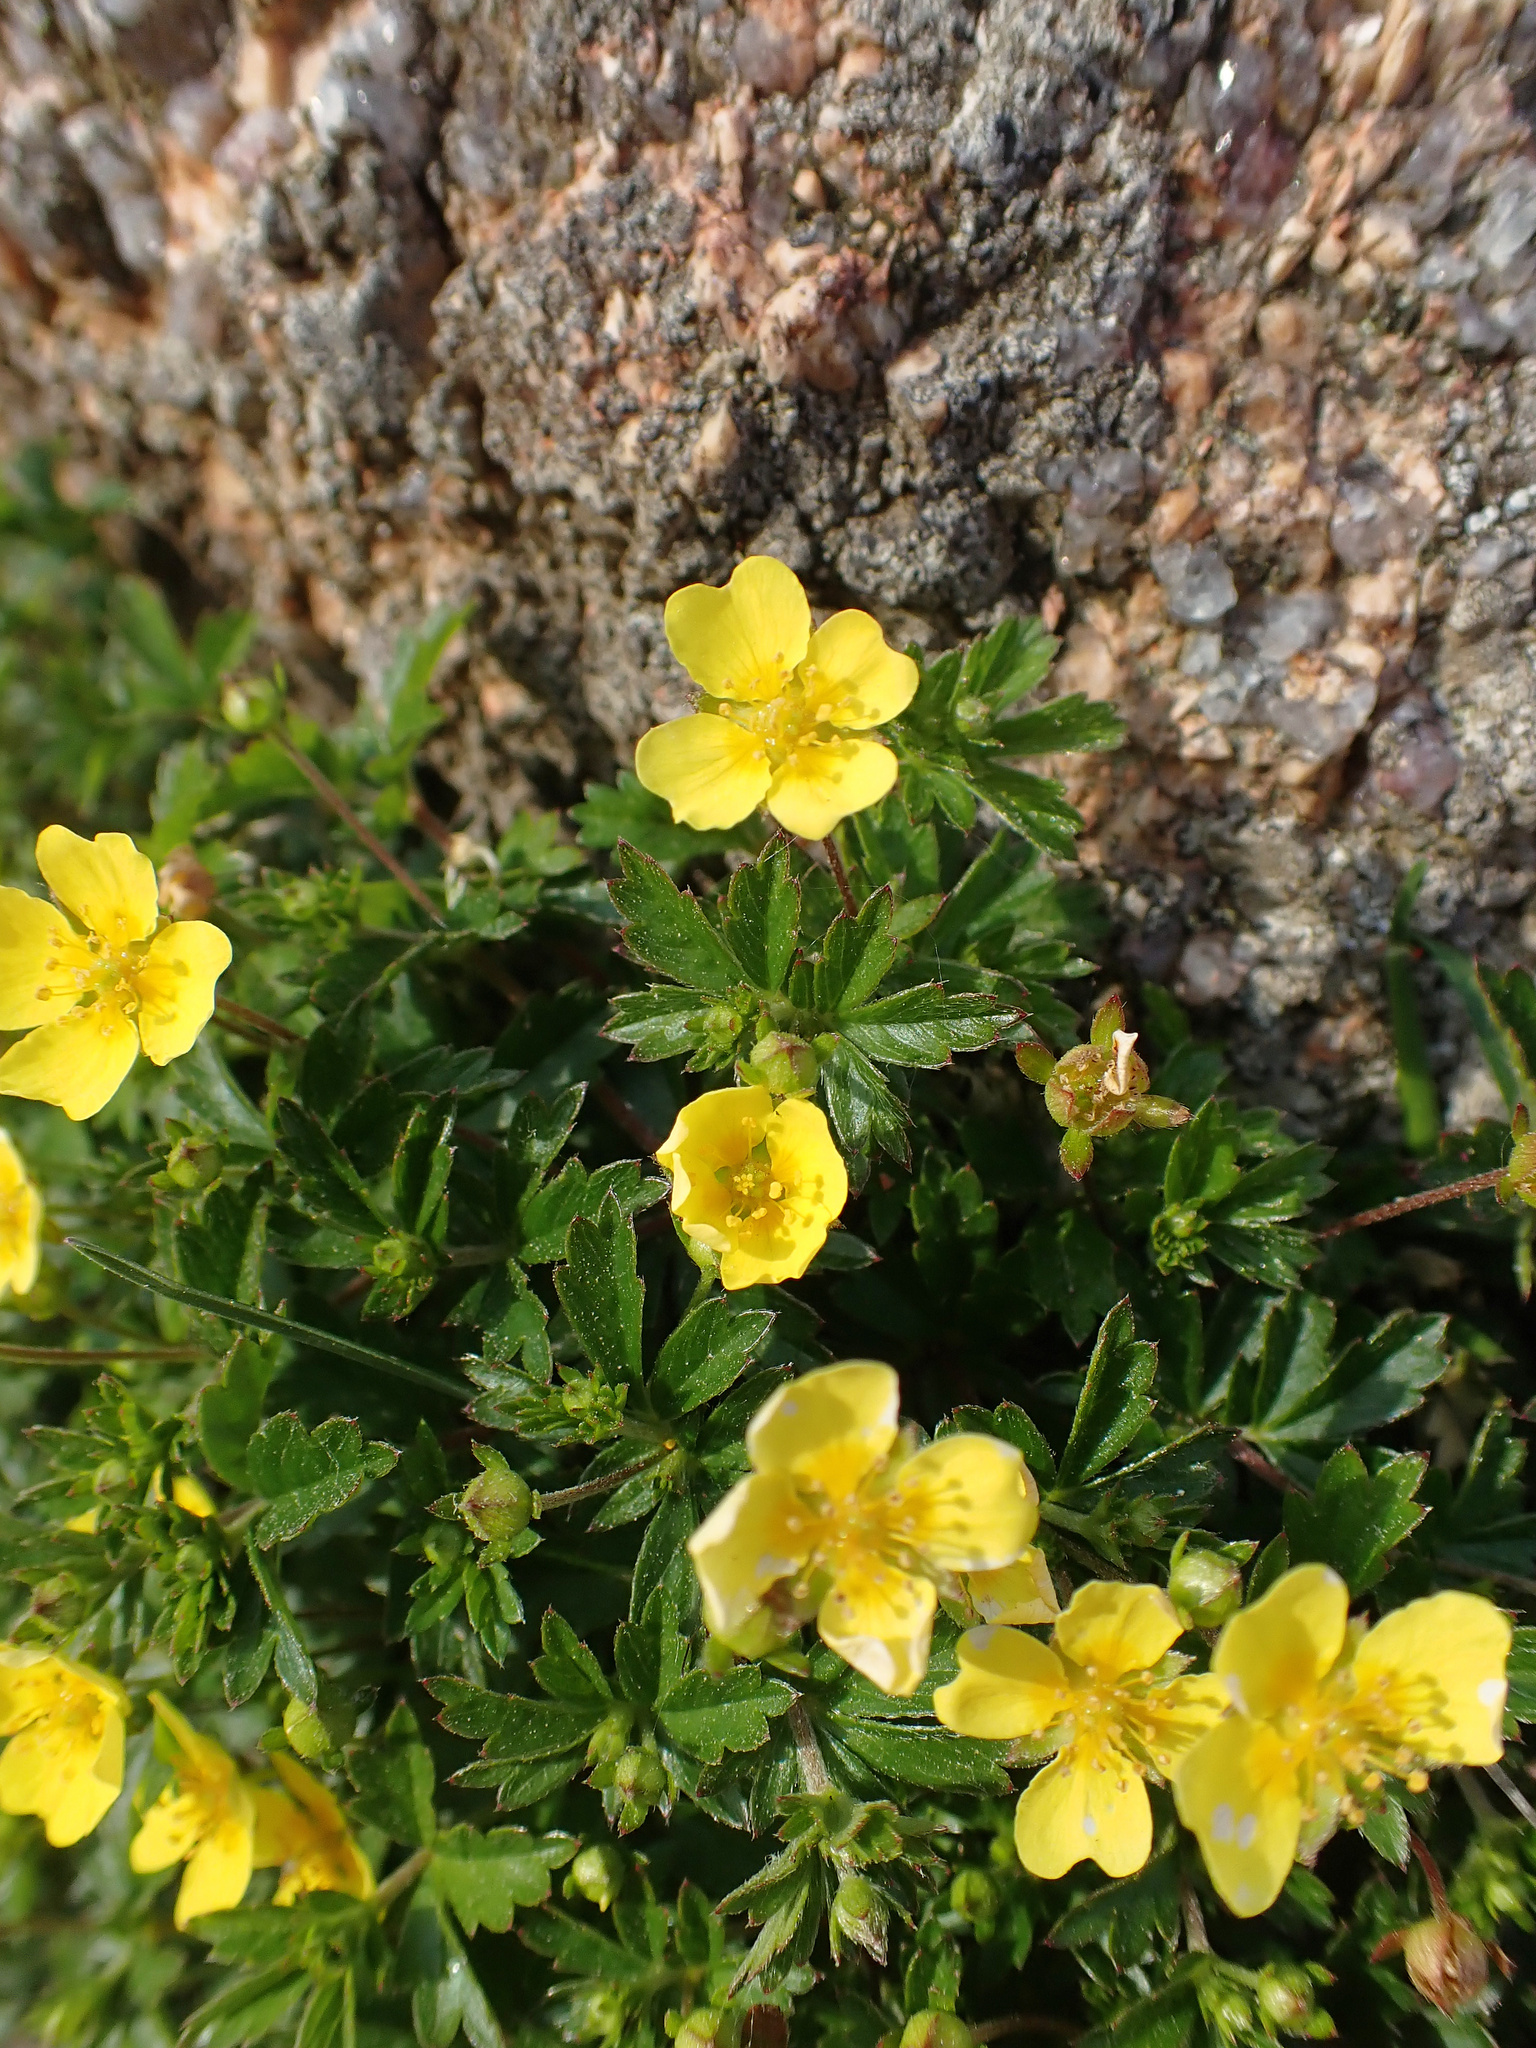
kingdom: Plantae
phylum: Tracheophyta
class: Magnoliopsida
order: Rosales
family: Rosaceae
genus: Potentilla
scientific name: Potentilla erecta
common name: Tormentil
